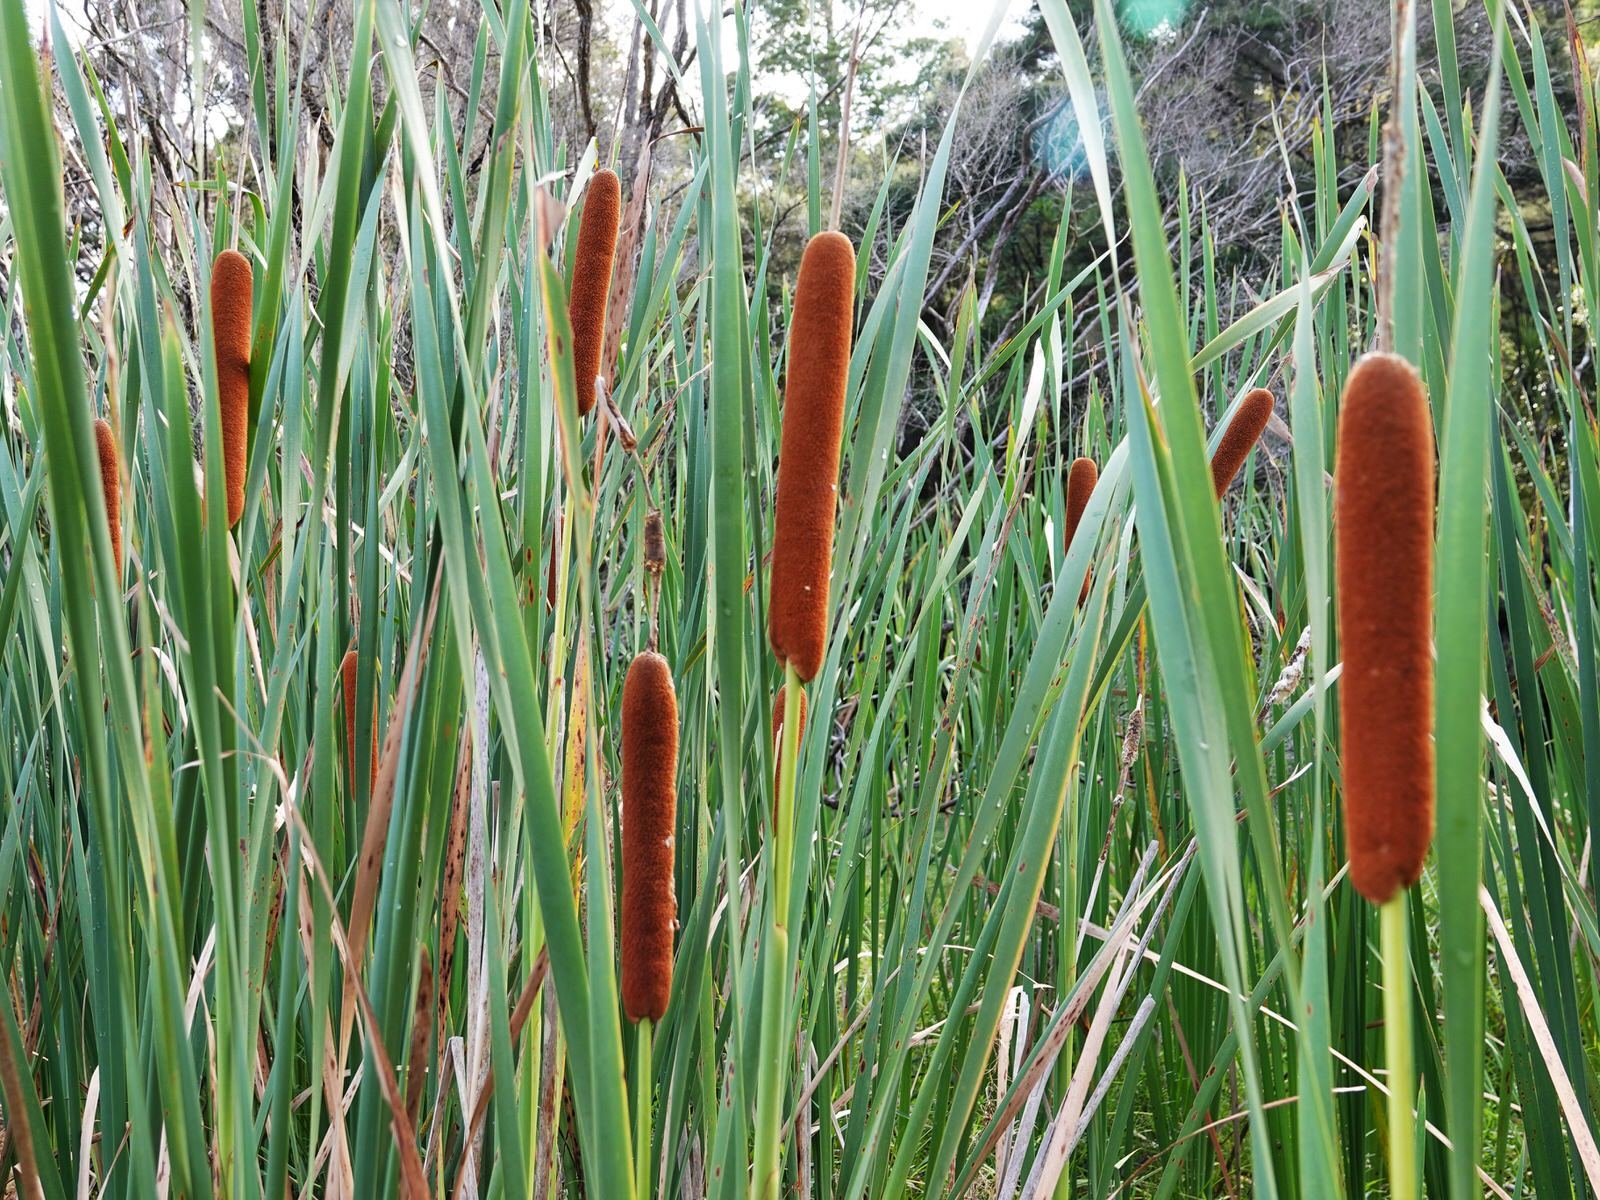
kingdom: Plantae
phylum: Tracheophyta
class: Liliopsida
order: Poales
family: Typhaceae
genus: Typha
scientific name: Typha orientalis
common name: Bullrush
